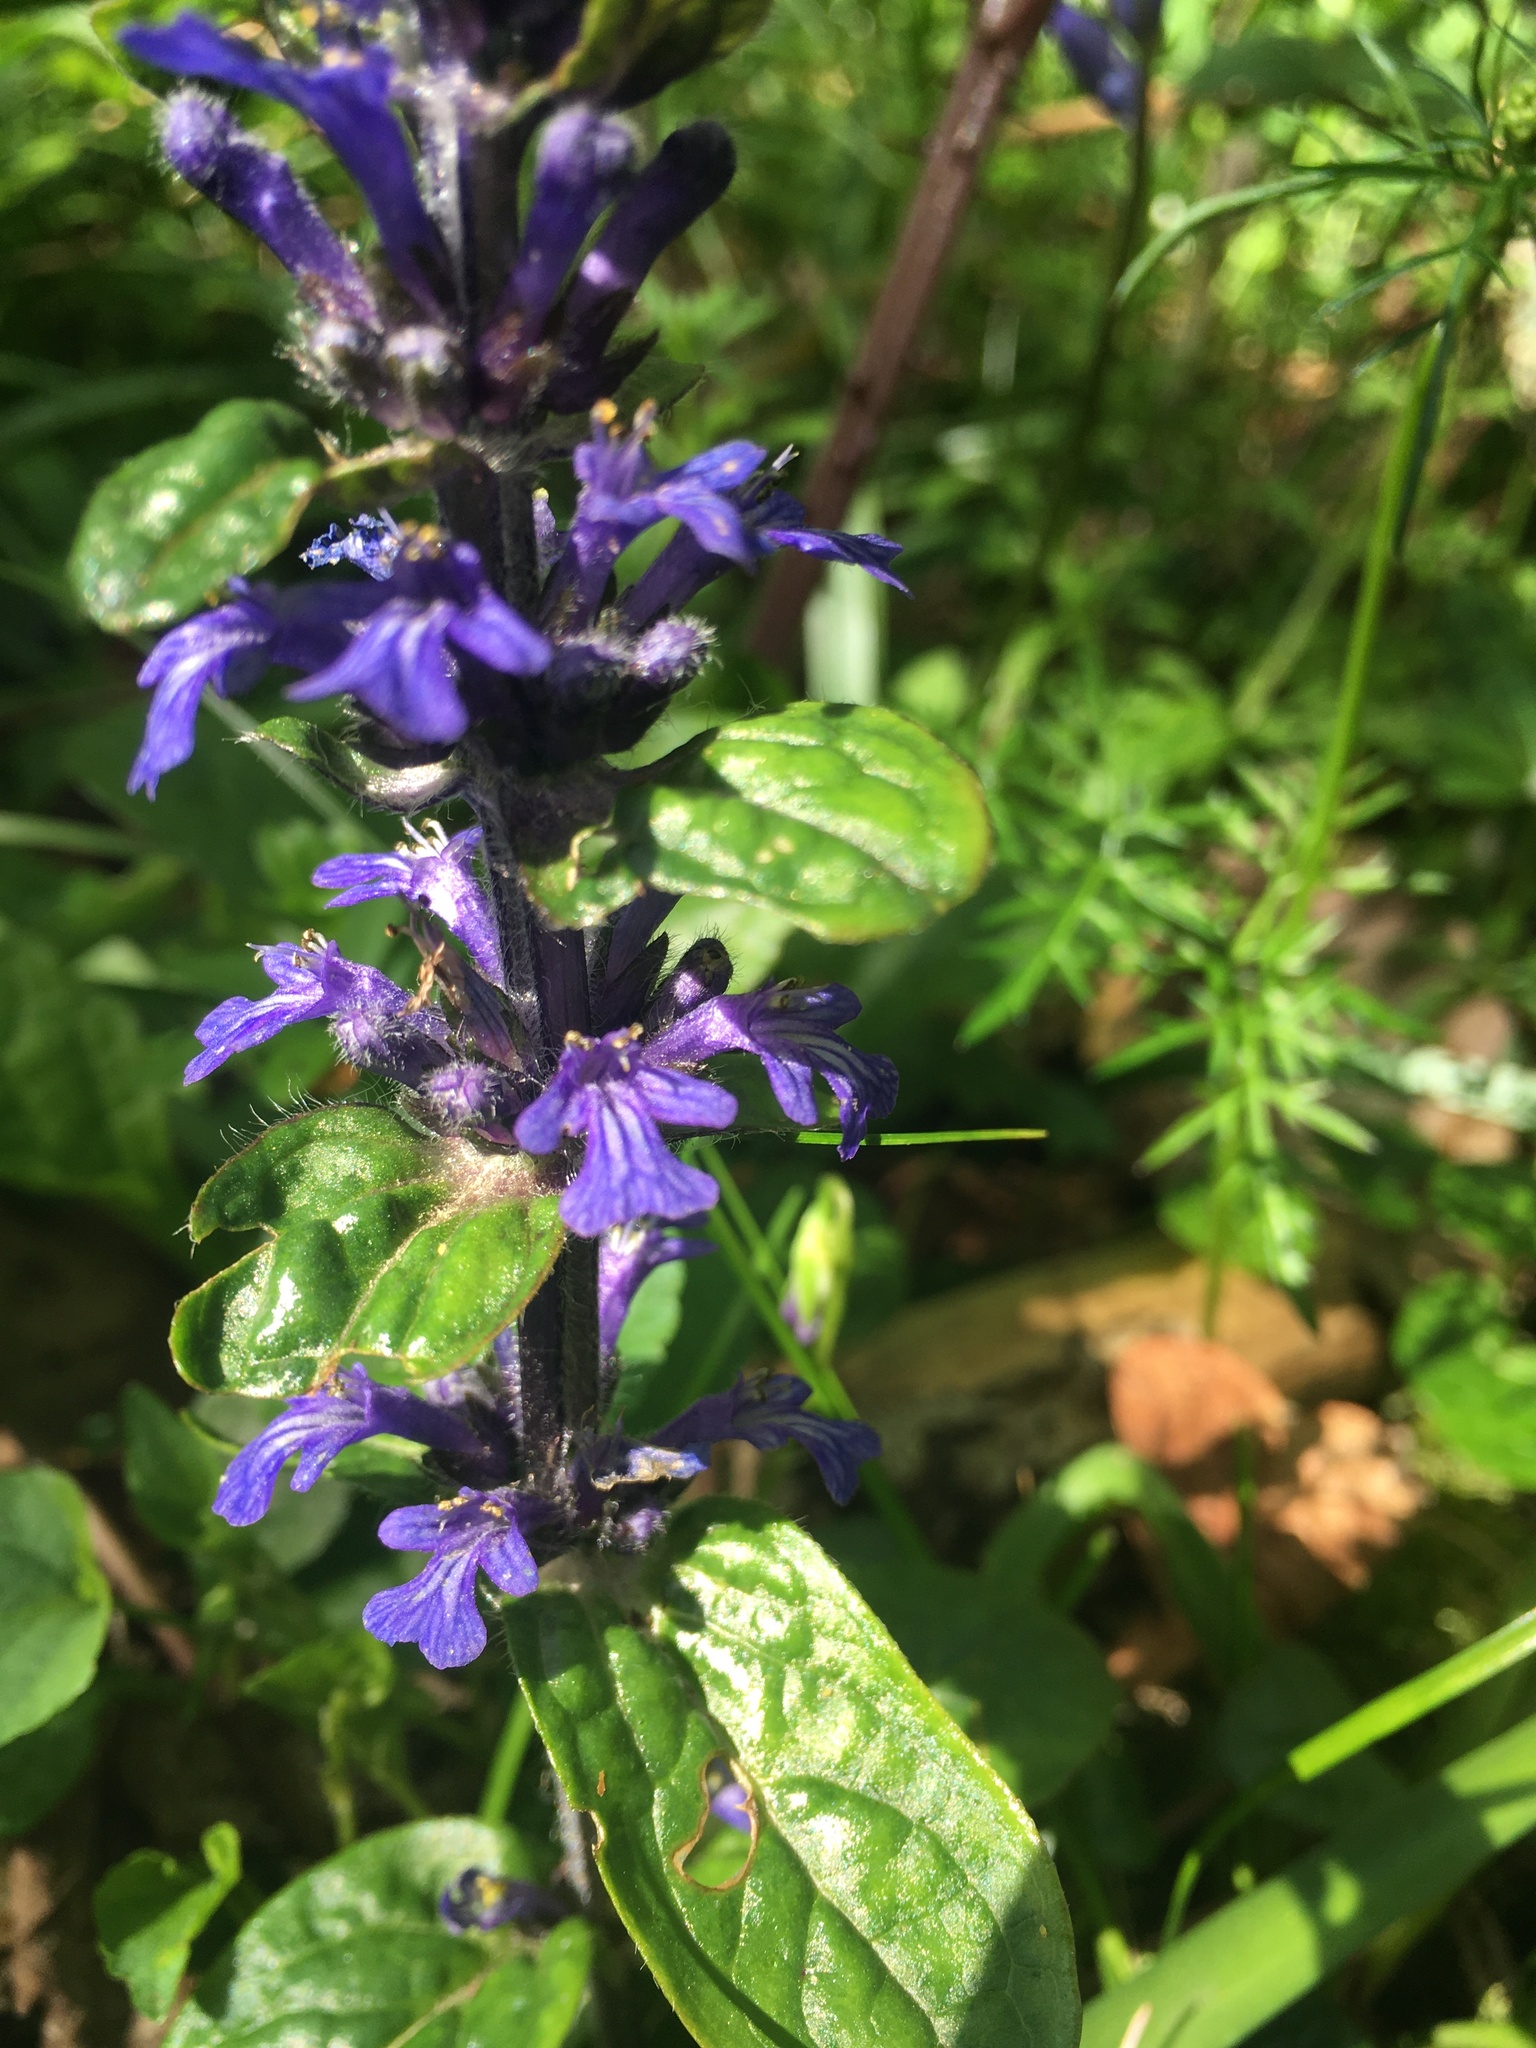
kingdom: Plantae
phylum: Tracheophyta
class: Magnoliopsida
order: Lamiales
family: Lamiaceae
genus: Ajuga
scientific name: Ajuga reptans
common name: Bugle
